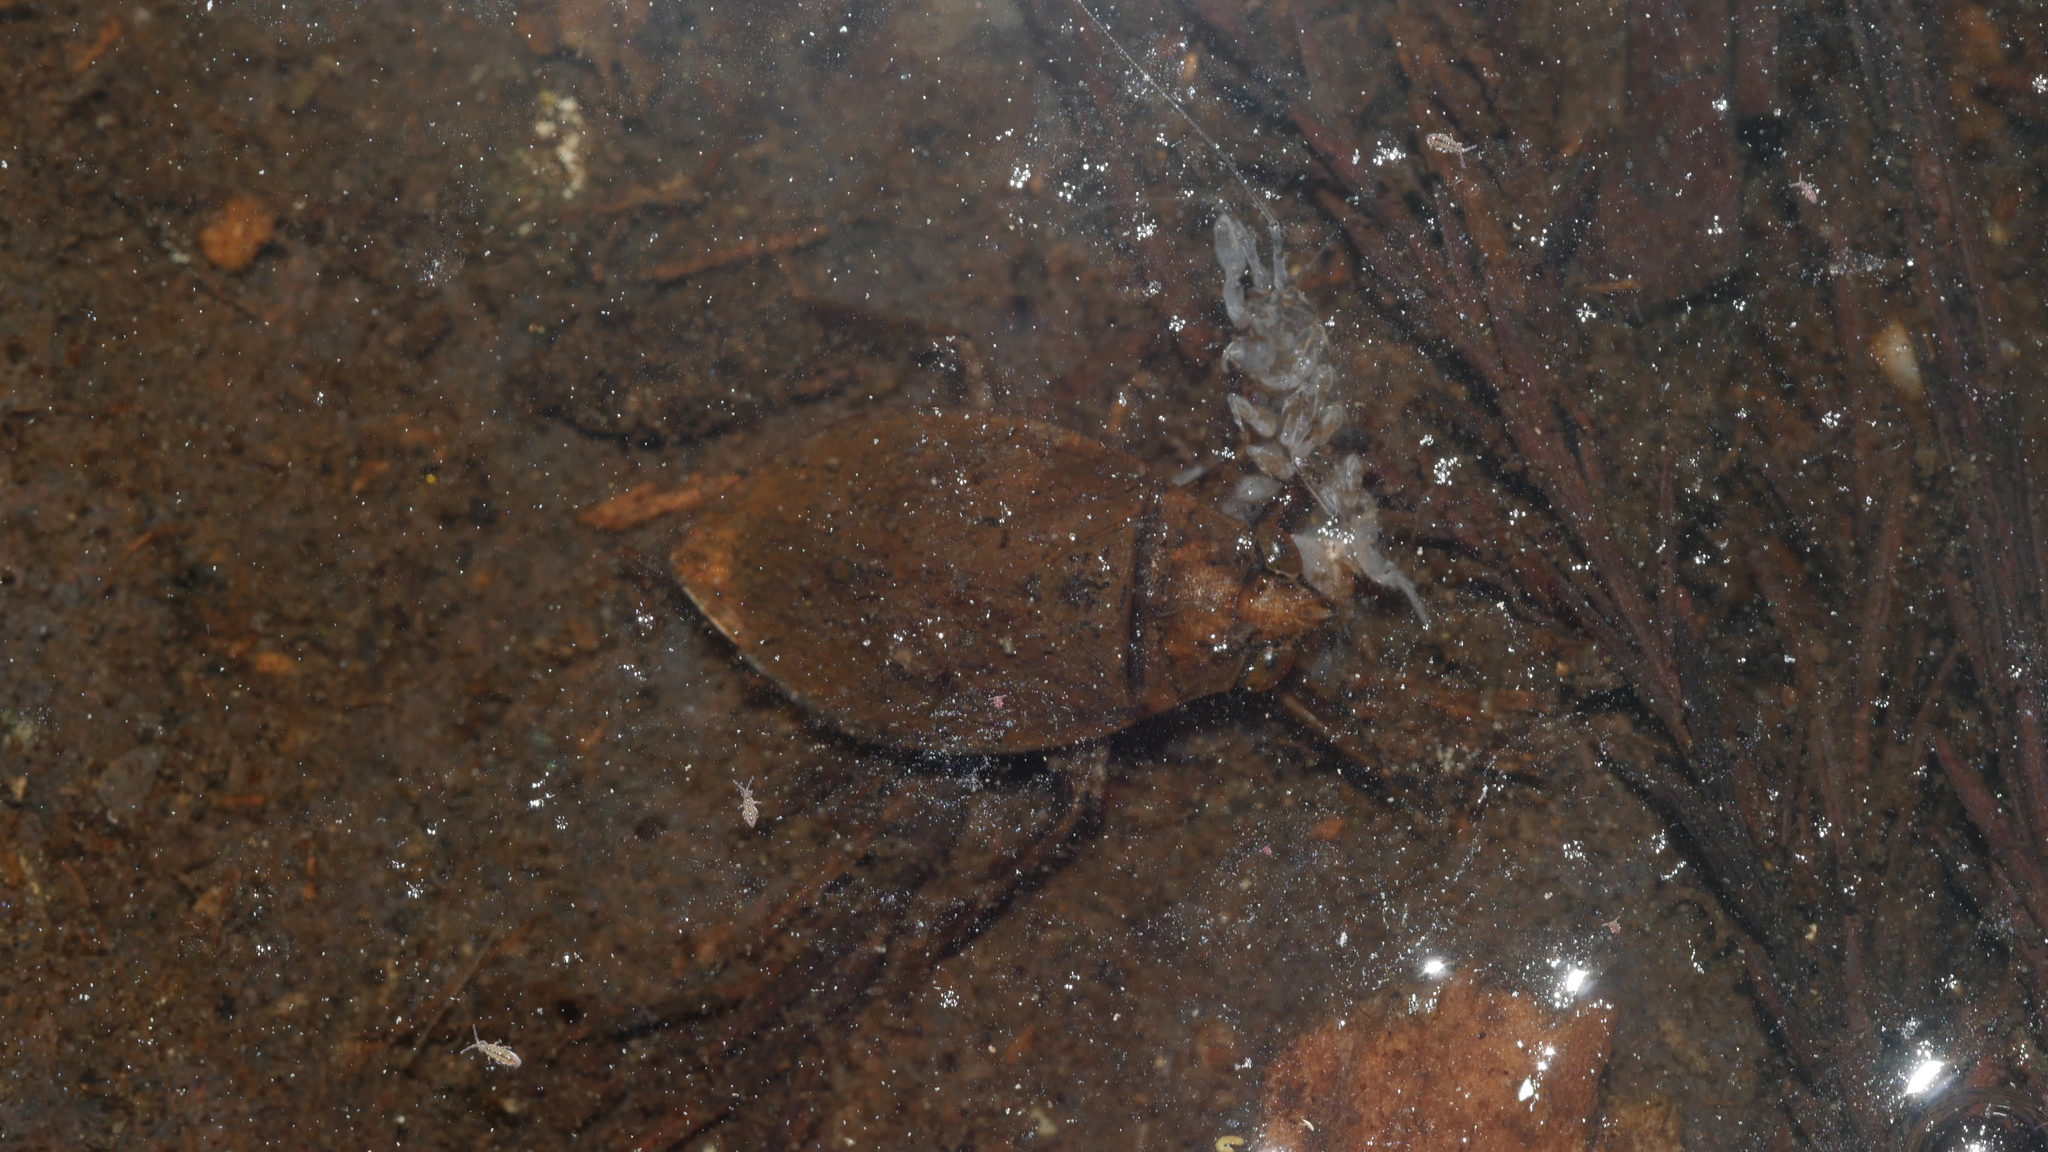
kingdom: Animalia
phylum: Arthropoda
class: Insecta
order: Hemiptera
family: Belostomatidae
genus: Belostoma
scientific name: Belostoma
